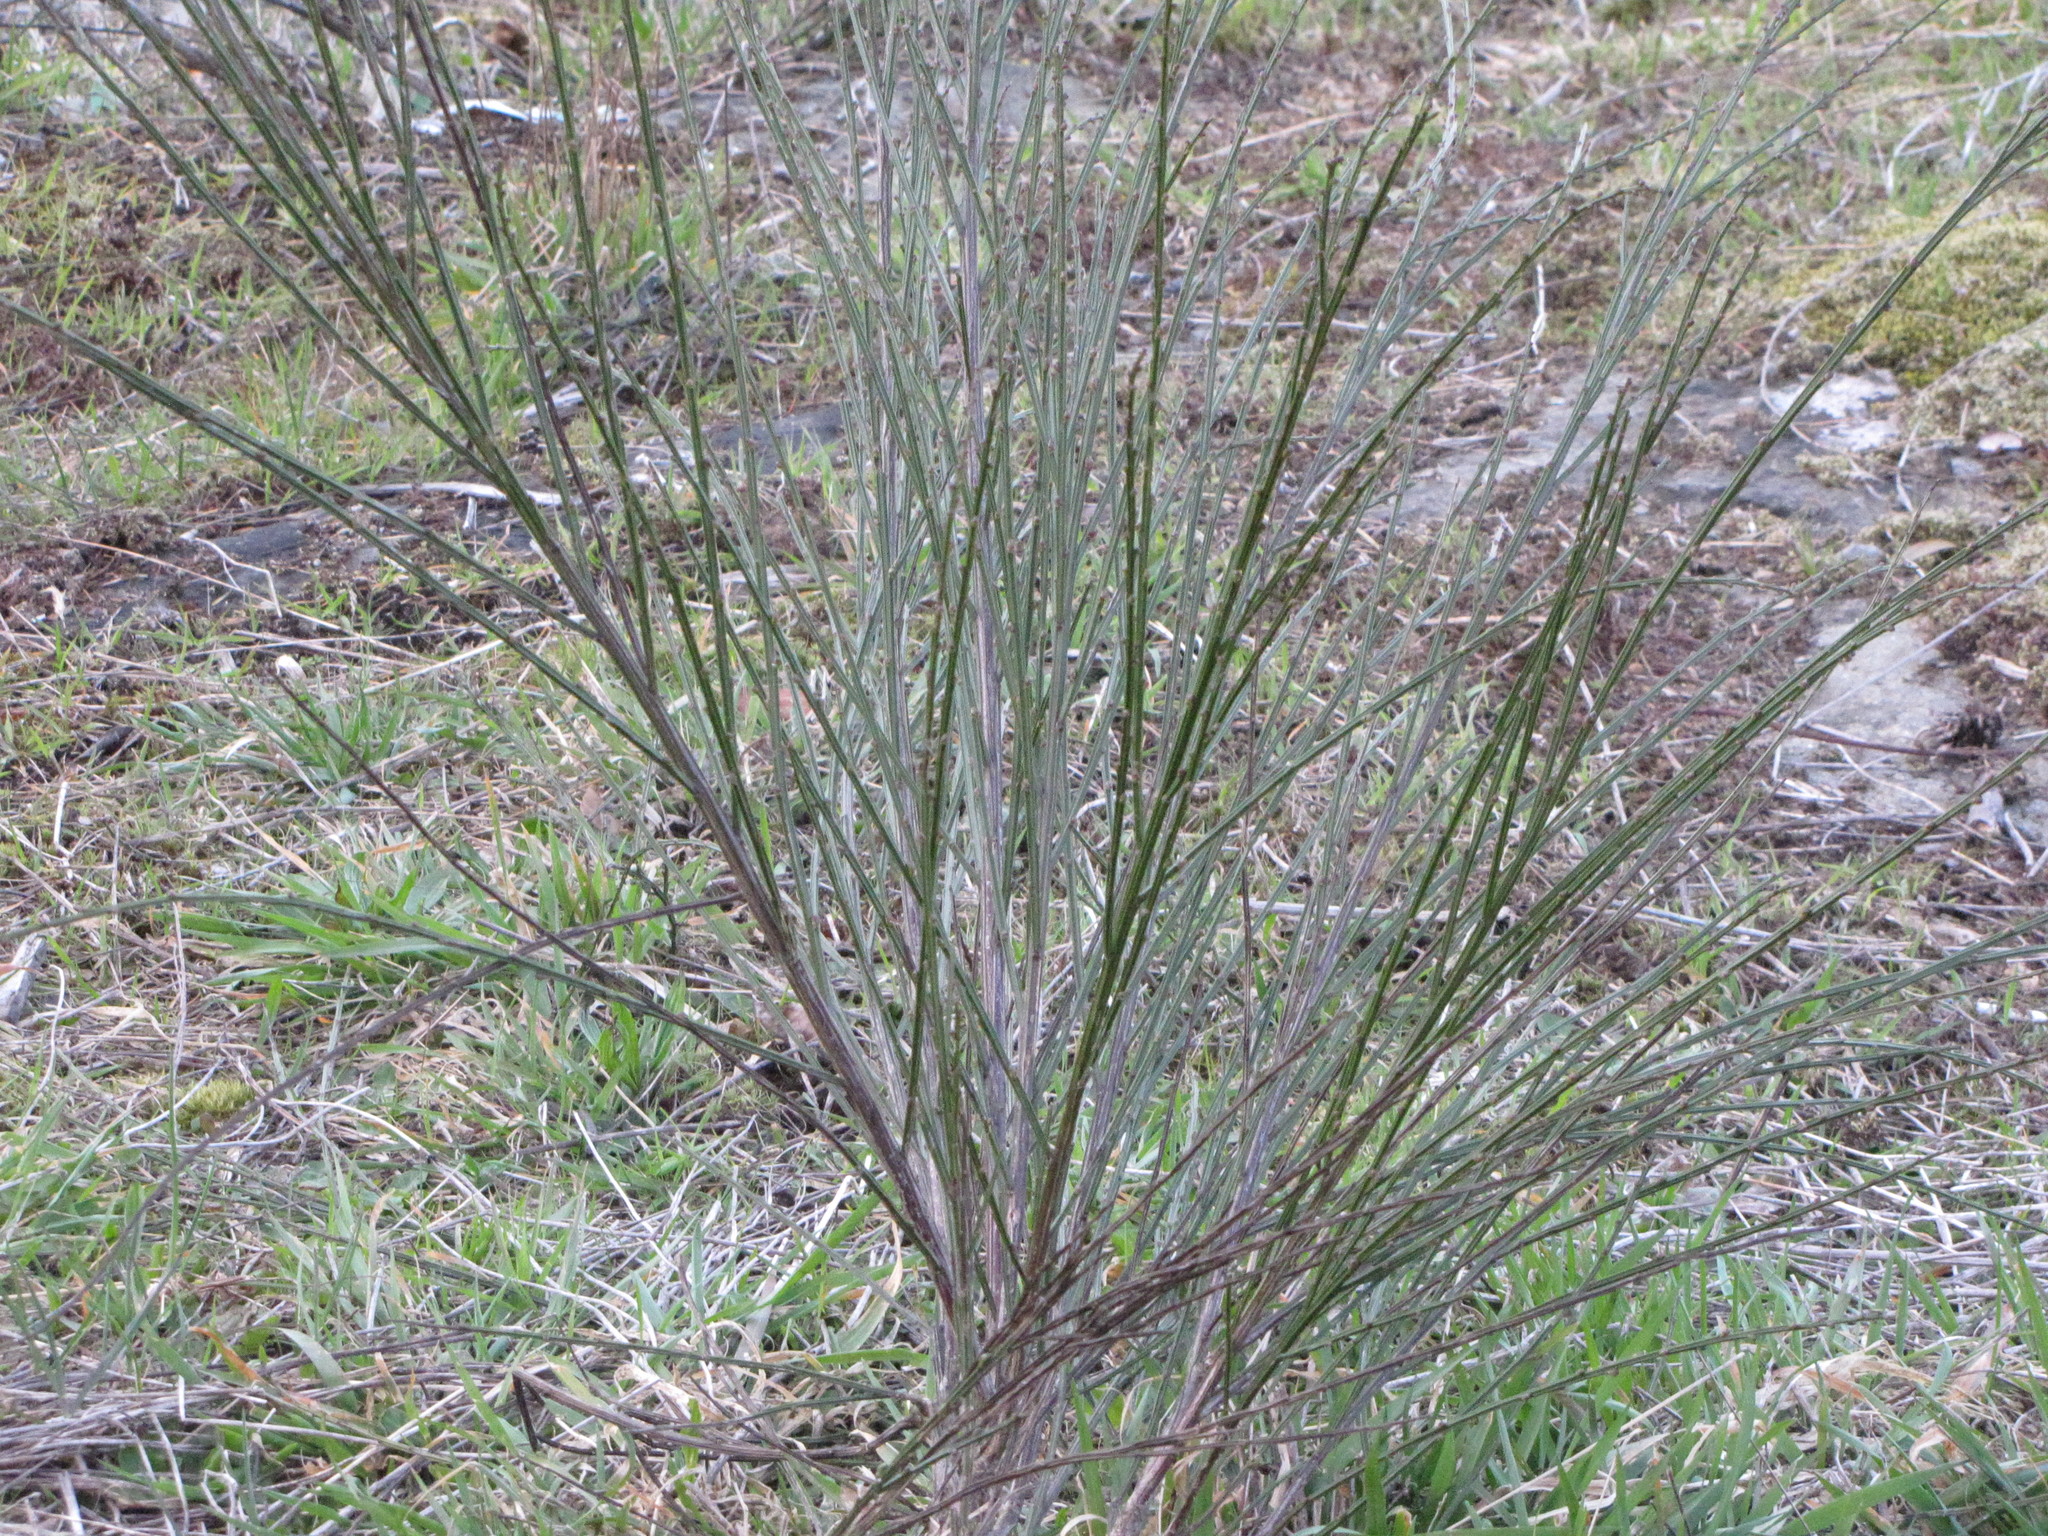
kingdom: Plantae
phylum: Tracheophyta
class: Magnoliopsida
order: Fabales
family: Fabaceae
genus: Cytisus
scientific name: Cytisus scoparius
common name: Scotch broom
